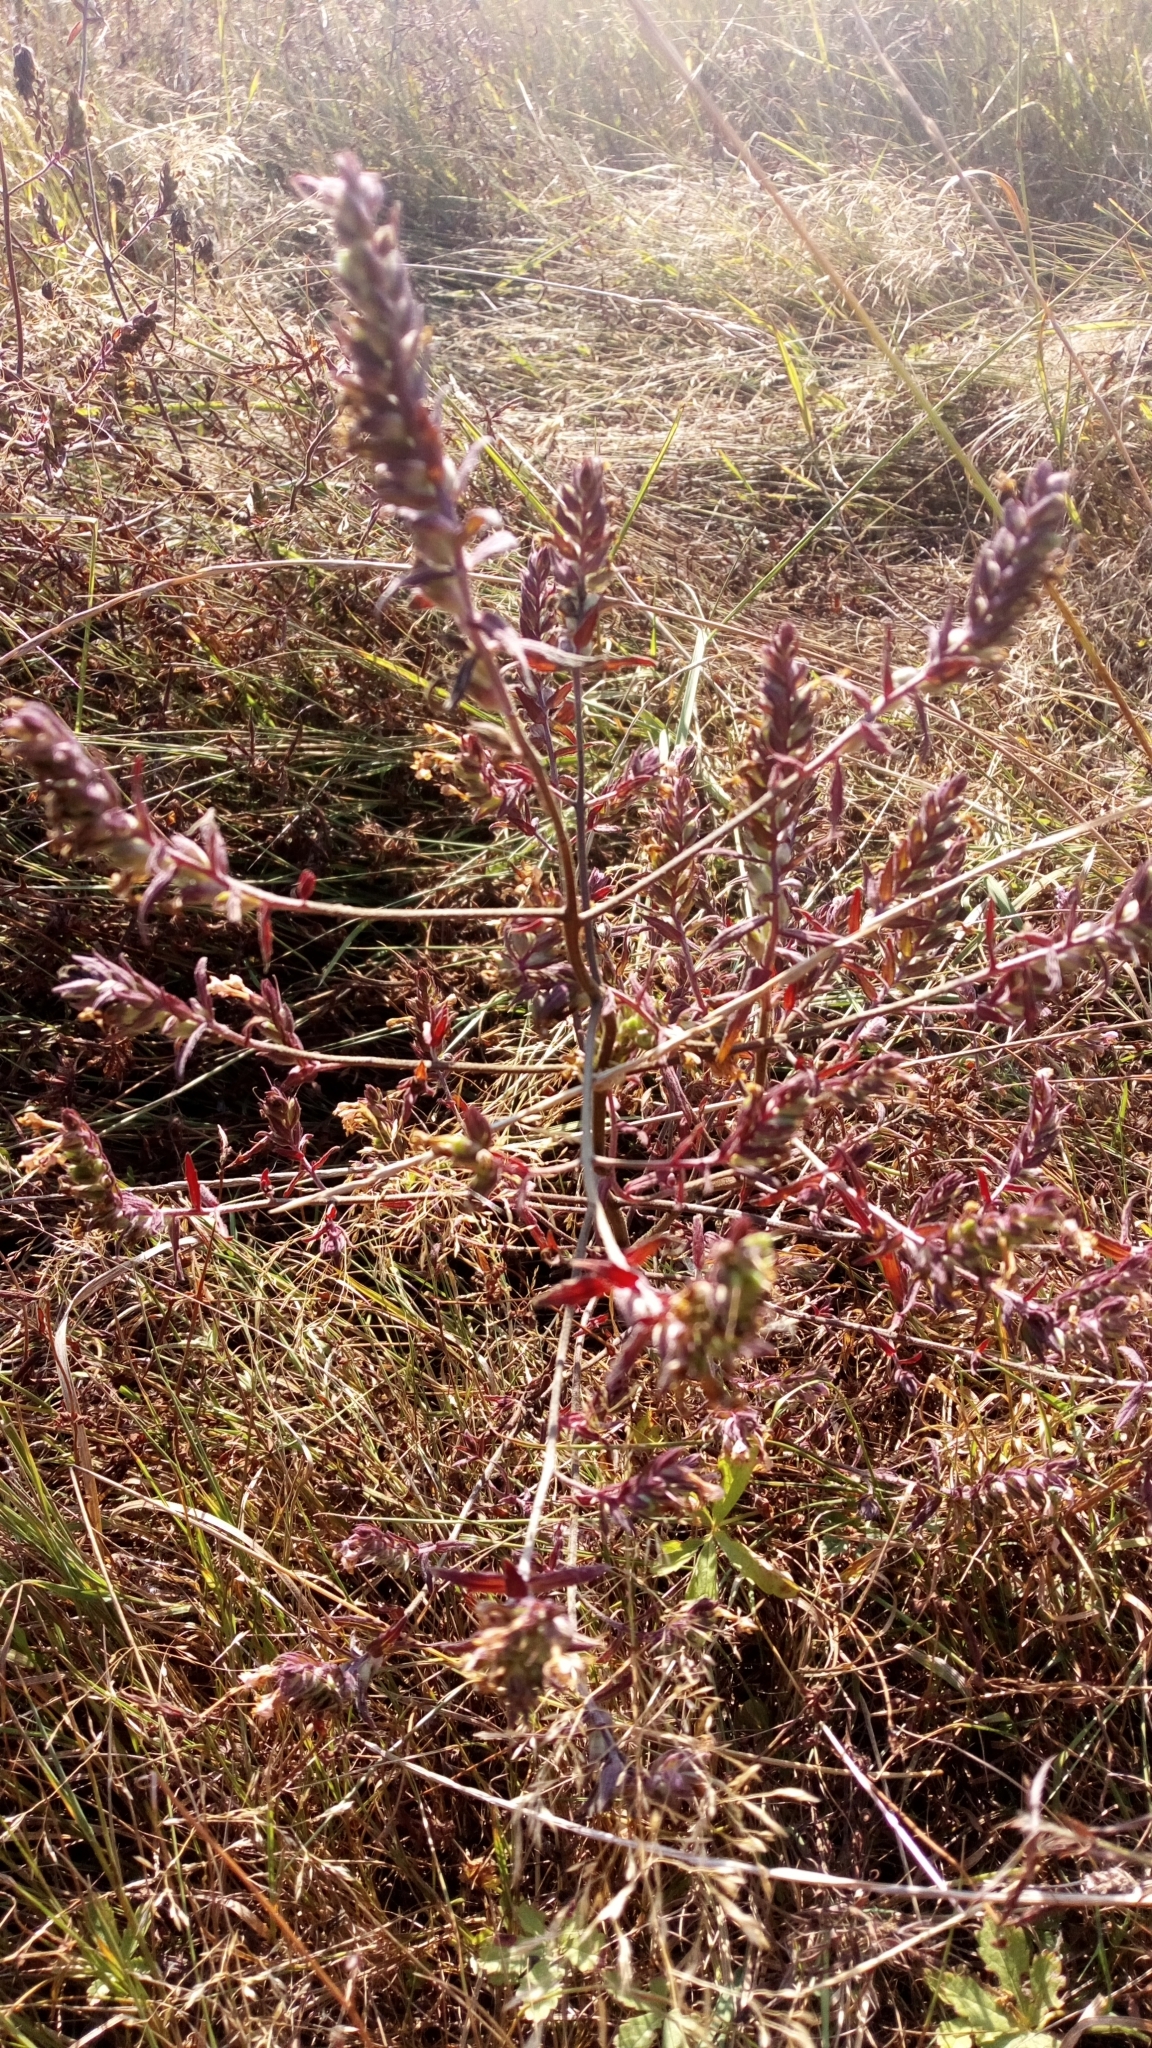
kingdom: Plantae
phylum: Tracheophyta
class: Magnoliopsida
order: Lamiales
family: Orobanchaceae
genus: Odontites
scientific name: Odontites vulgaris
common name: Broomrape
